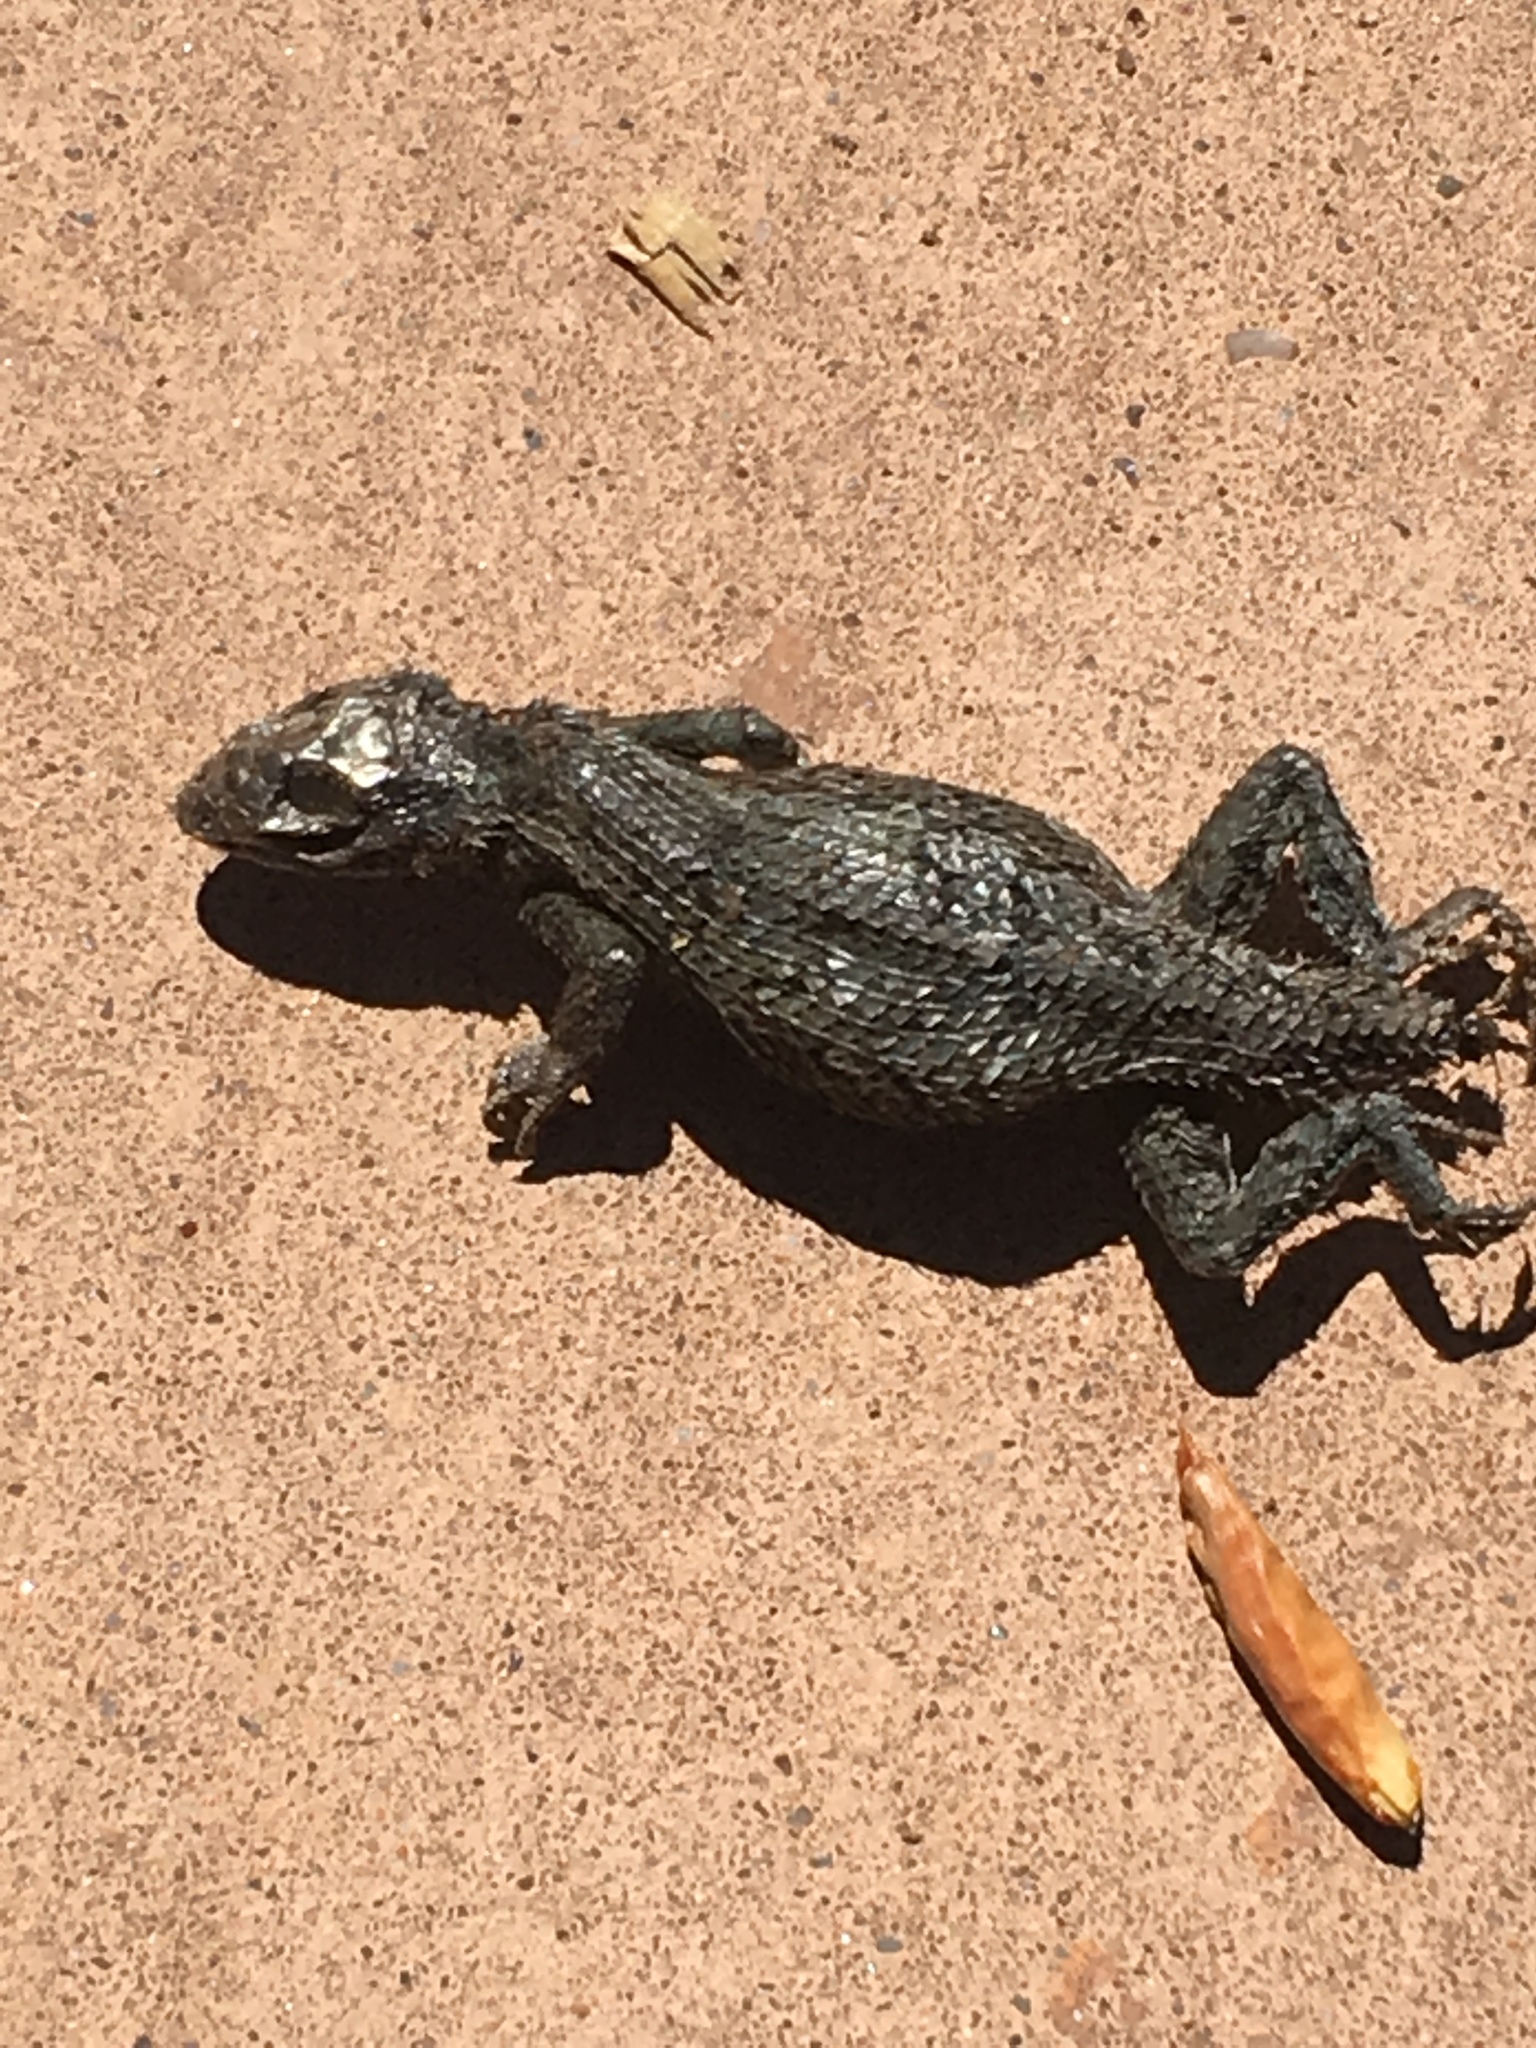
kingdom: Animalia
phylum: Chordata
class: Squamata
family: Phrynosomatidae
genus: Sceloporus
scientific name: Sceloporus tristichus
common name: Plateau fence lizard
